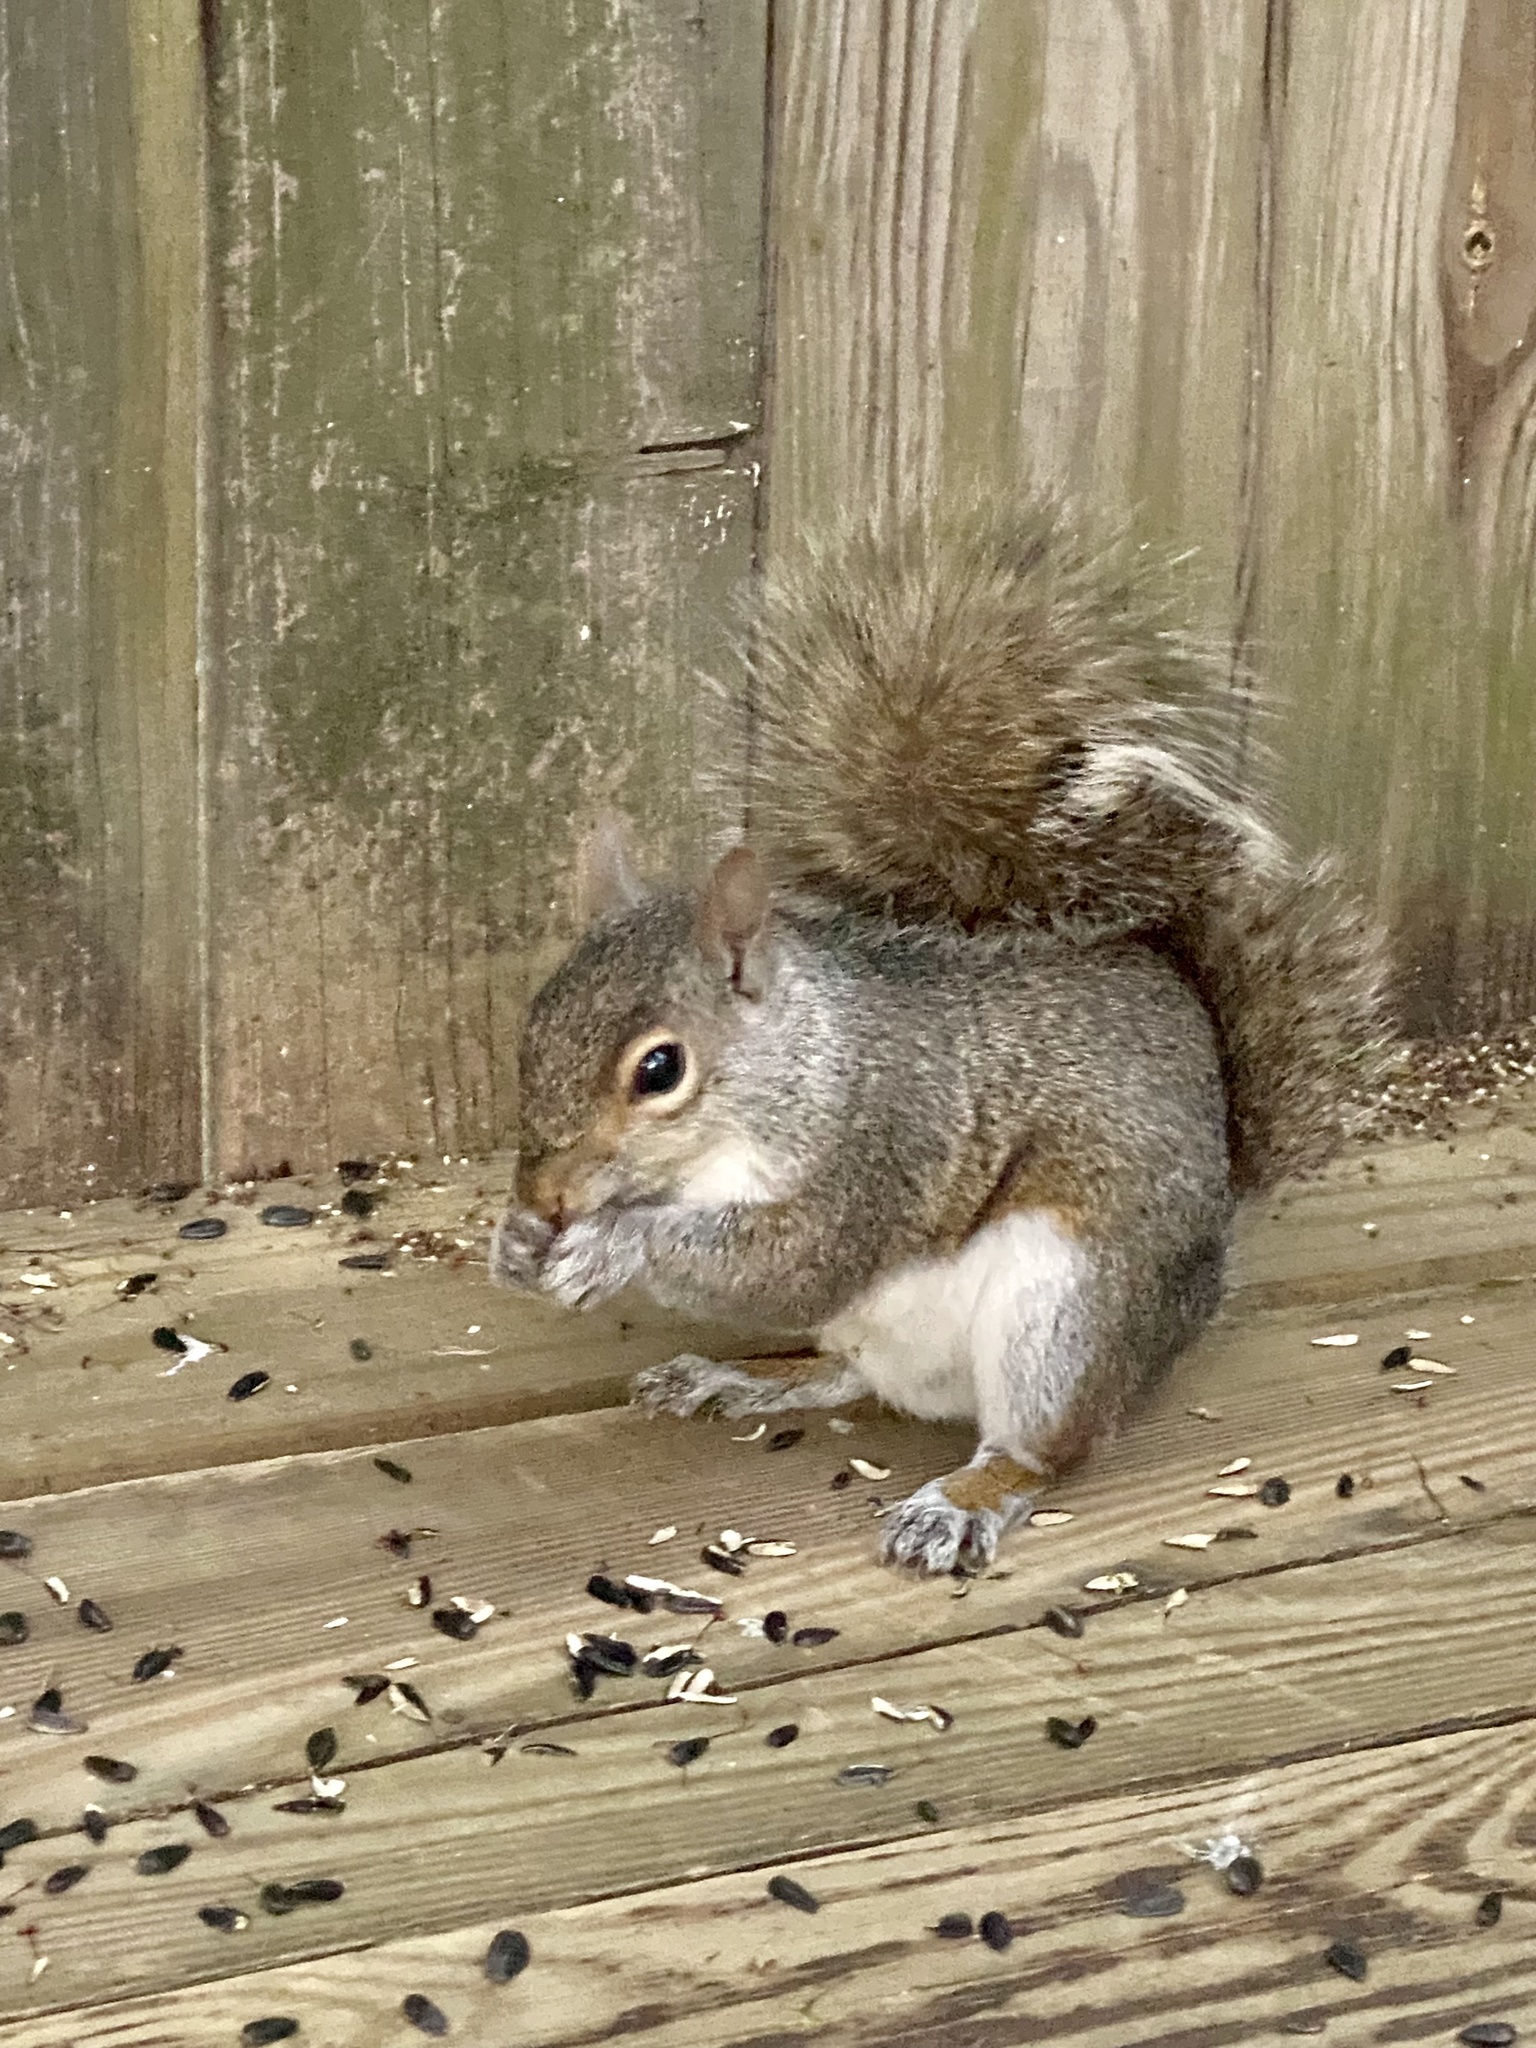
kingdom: Animalia
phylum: Chordata
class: Mammalia
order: Rodentia
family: Sciuridae
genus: Sciurus
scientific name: Sciurus carolinensis
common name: Eastern gray squirrel
